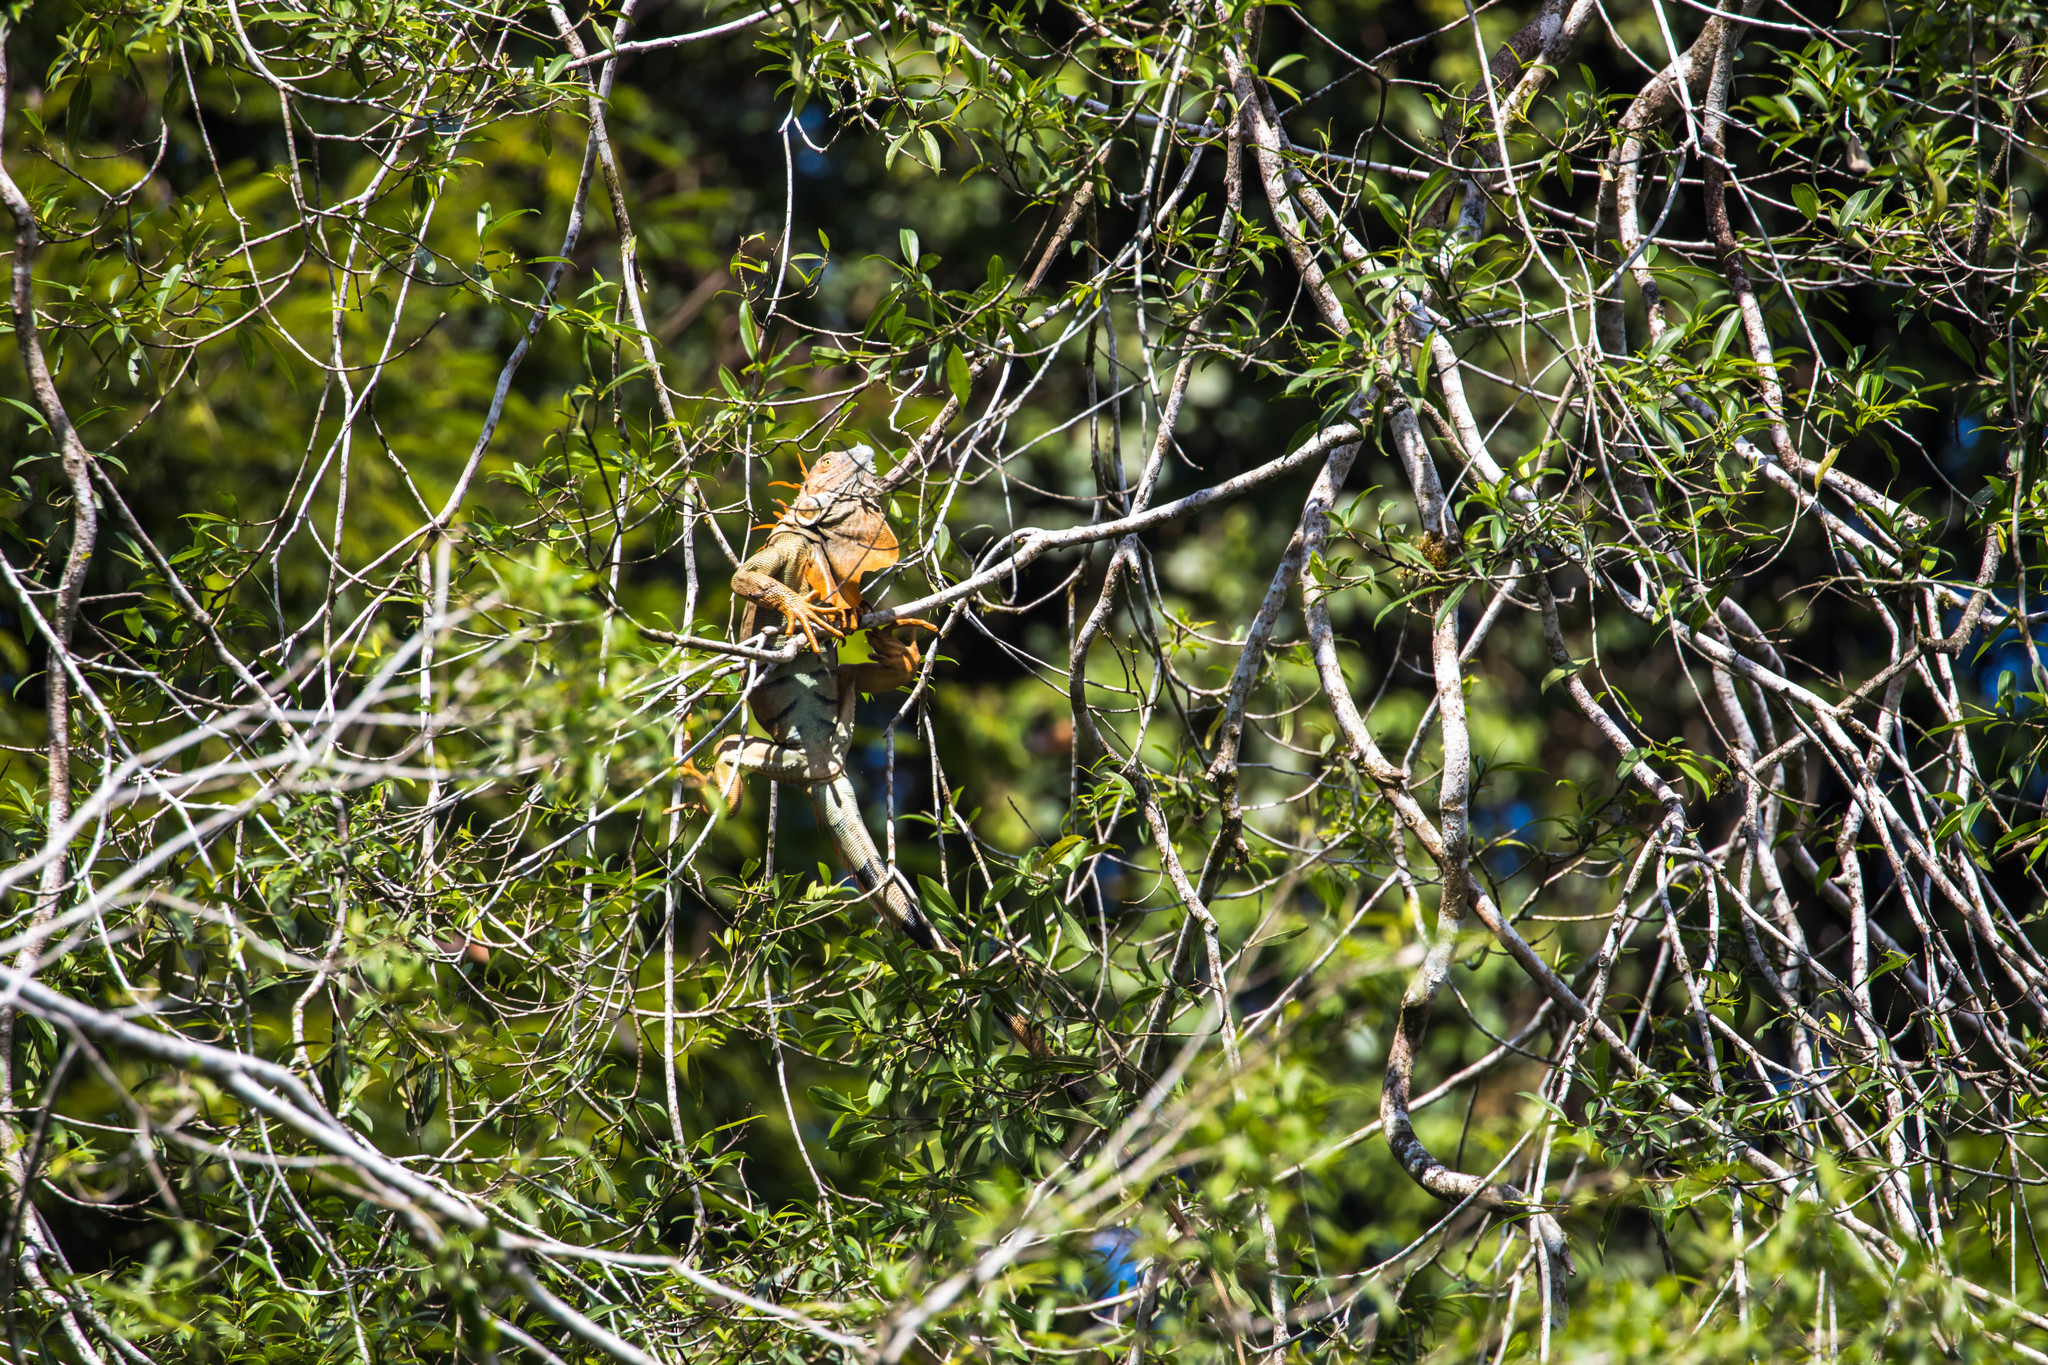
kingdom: Animalia
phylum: Chordata
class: Squamata
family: Iguanidae
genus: Iguana
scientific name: Iguana iguana
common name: Green iguana
